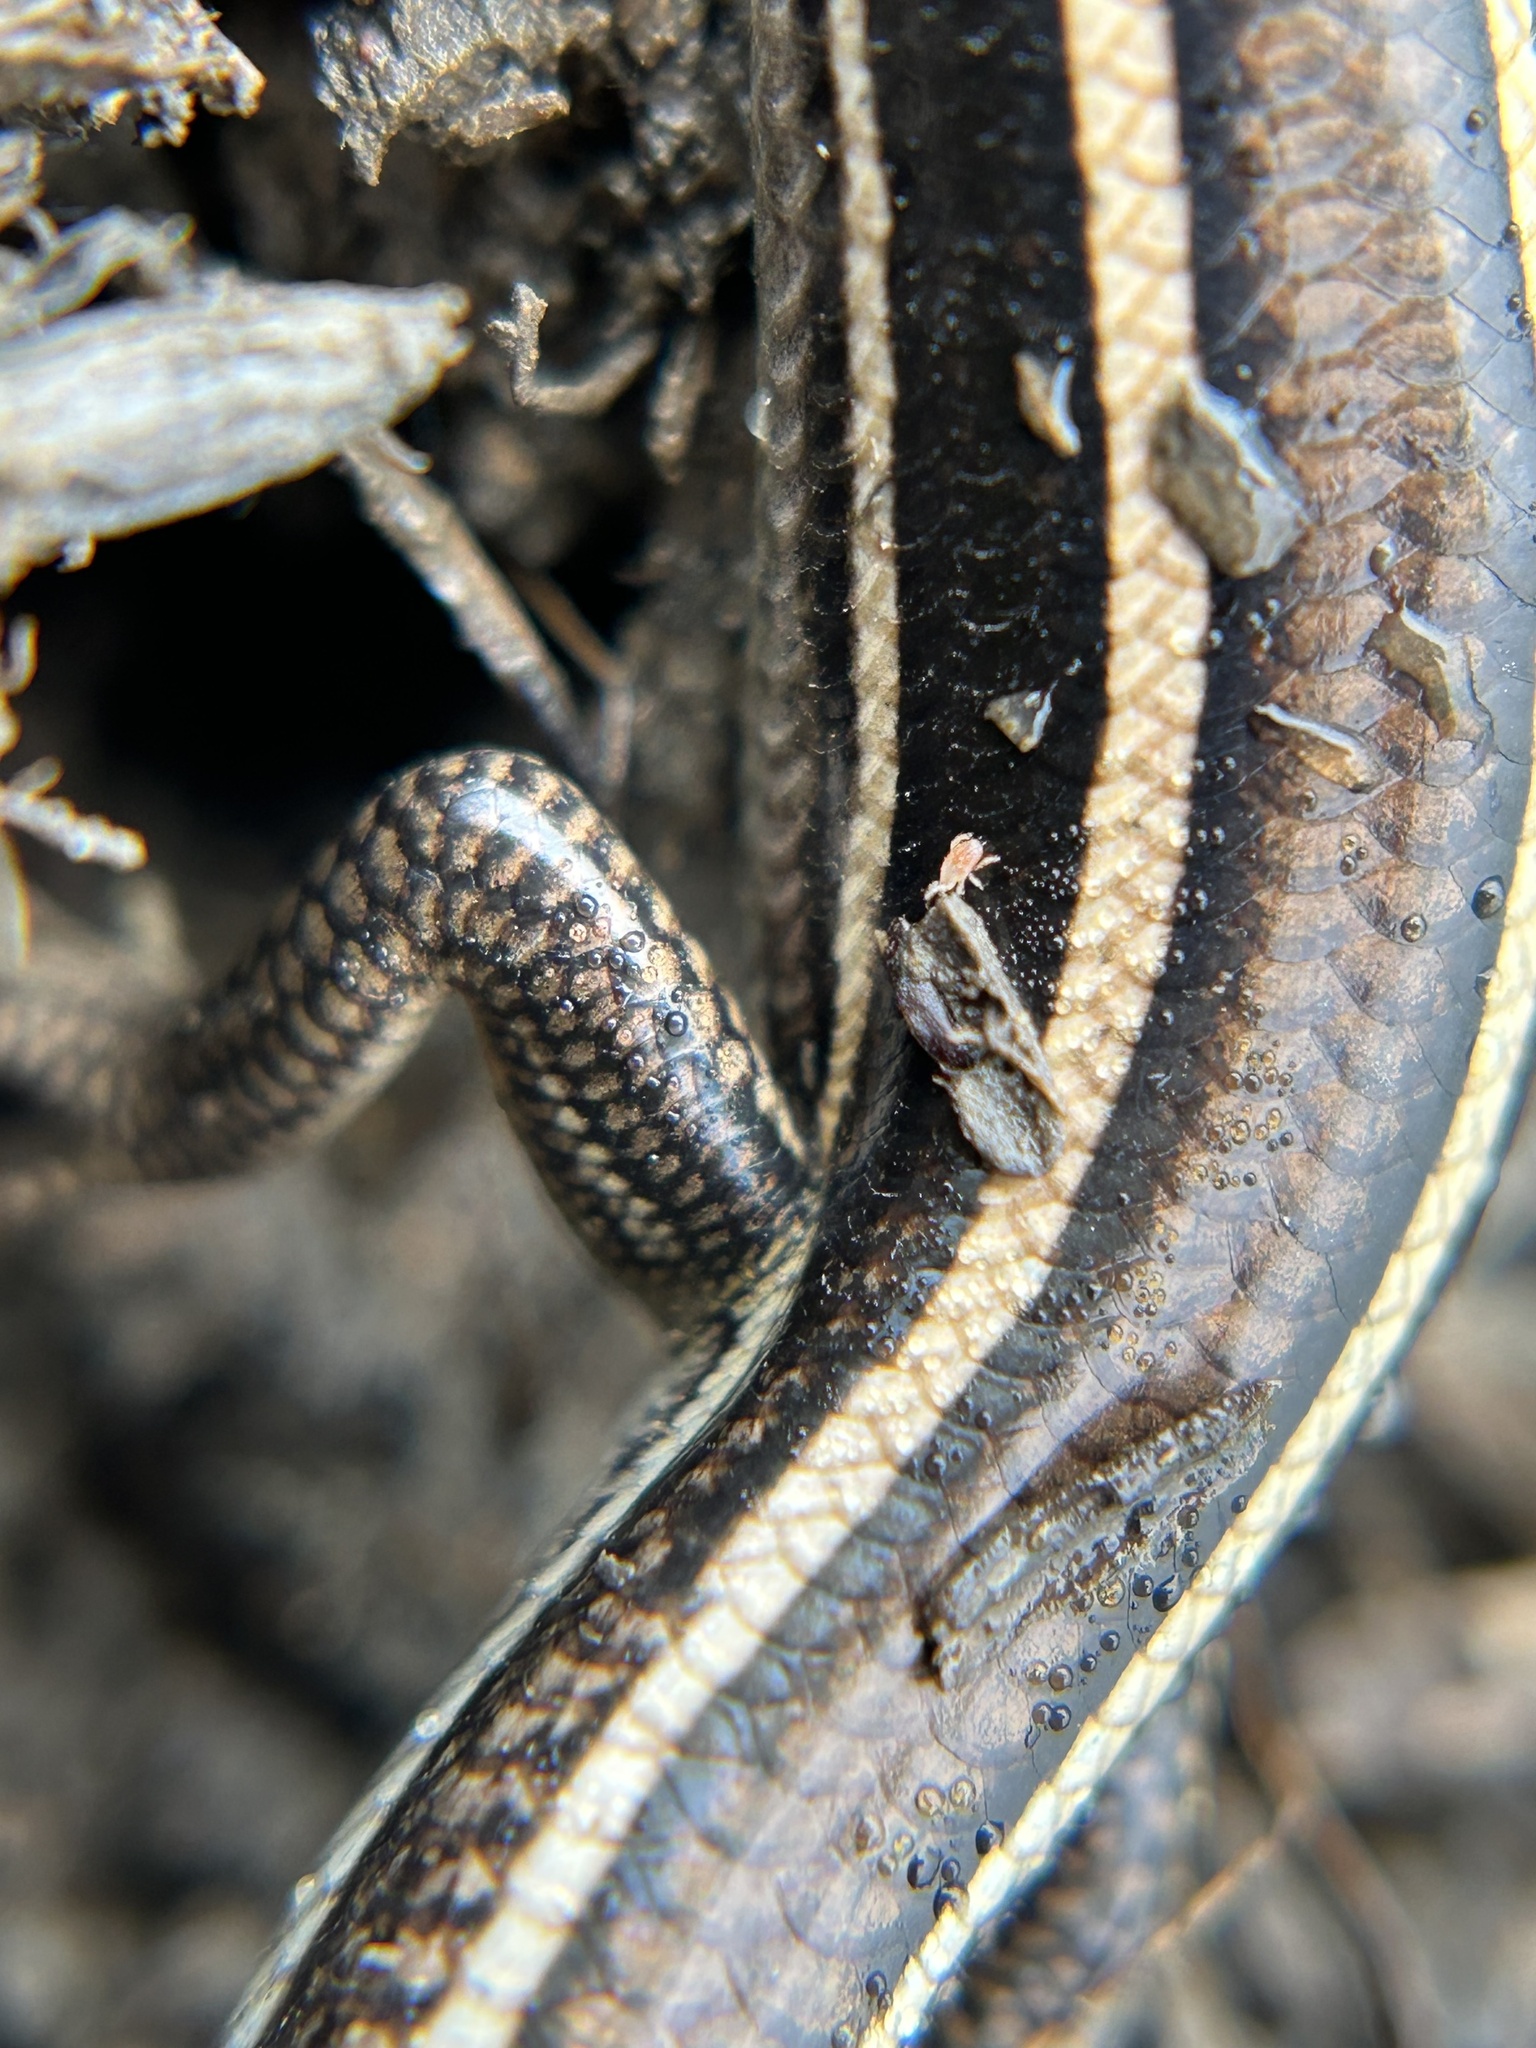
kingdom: Animalia
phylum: Chordata
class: Squamata
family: Scincidae
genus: Plestiodon
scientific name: Plestiodon skiltonianus
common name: Coronado island skink [interparietalis]
